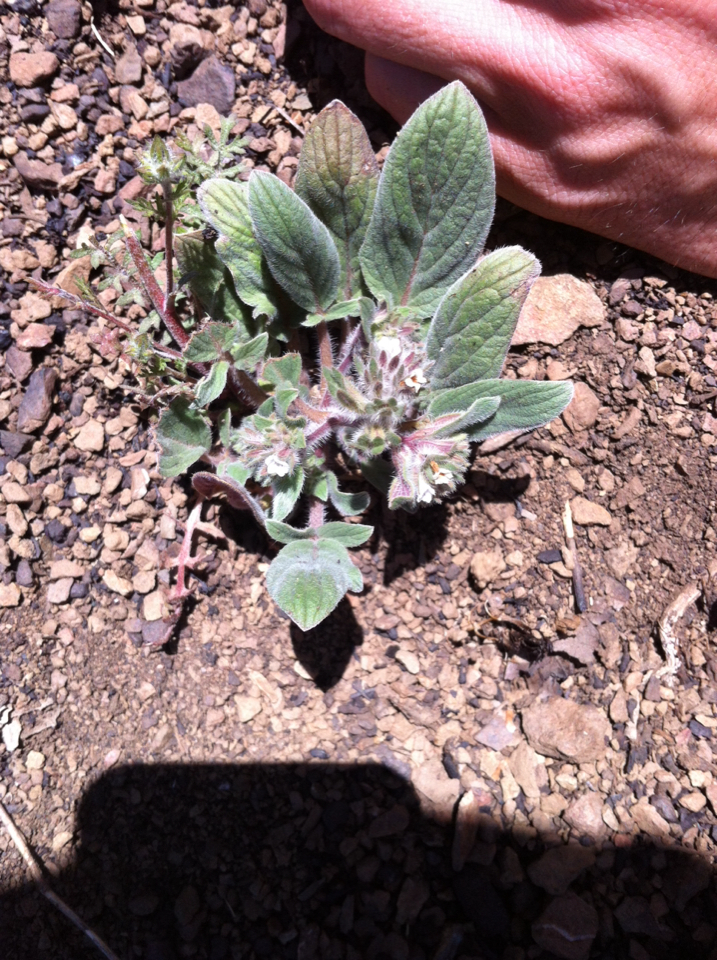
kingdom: Plantae
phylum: Tracheophyta
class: Magnoliopsida
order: Boraginales
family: Hydrophyllaceae
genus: Phacelia
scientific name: Phacelia phacelioides
